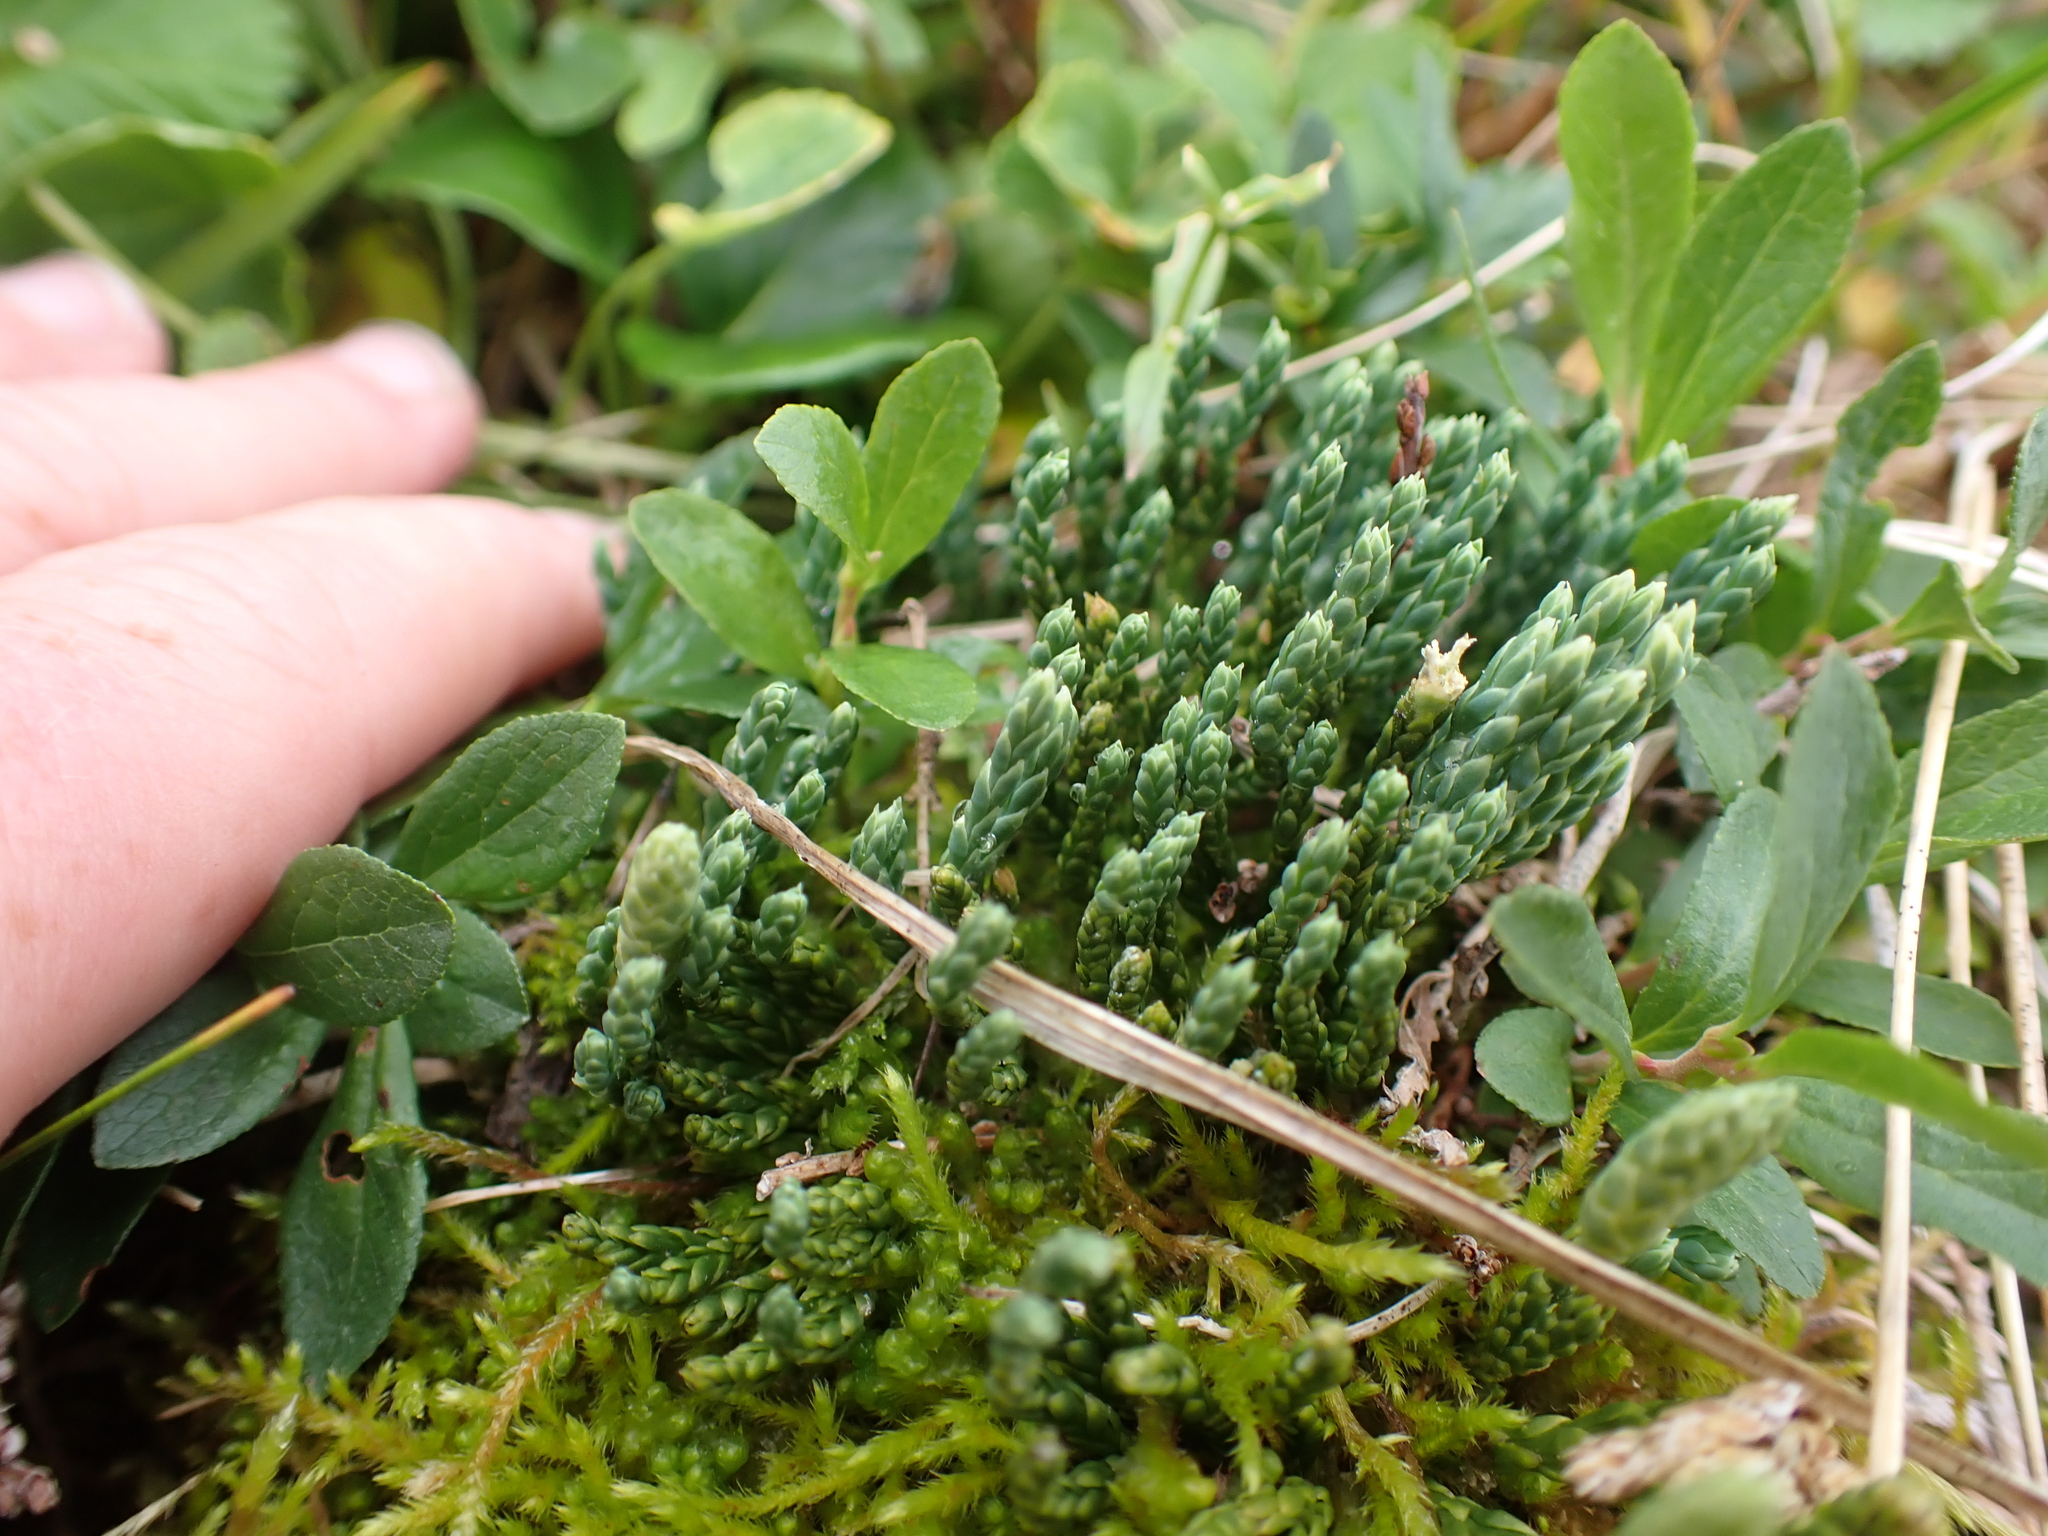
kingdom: Plantae
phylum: Tracheophyta
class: Lycopodiopsida
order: Lycopodiales
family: Lycopodiaceae
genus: Diphasiastrum
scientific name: Diphasiastrum alpinum
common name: Alpine clubmoss
